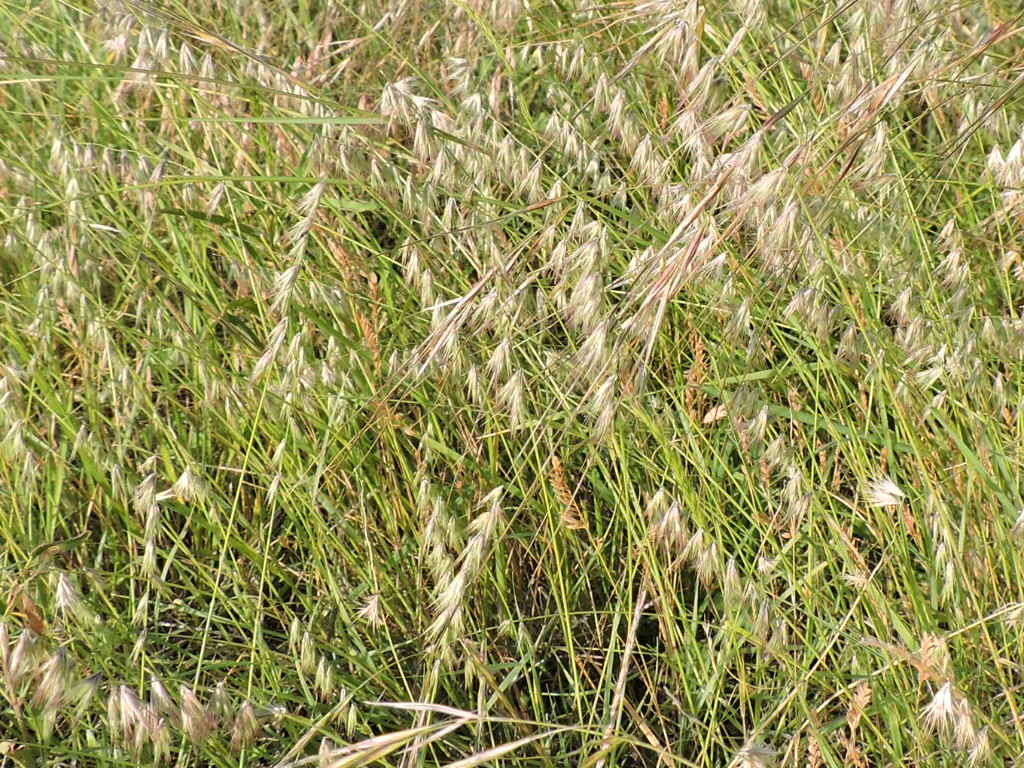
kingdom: Plantae
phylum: Tracheophyta
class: Liliopsida
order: Poales
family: Poaceae
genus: Bouteloua
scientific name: Bouteloua rigidiseta
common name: Texas grama
